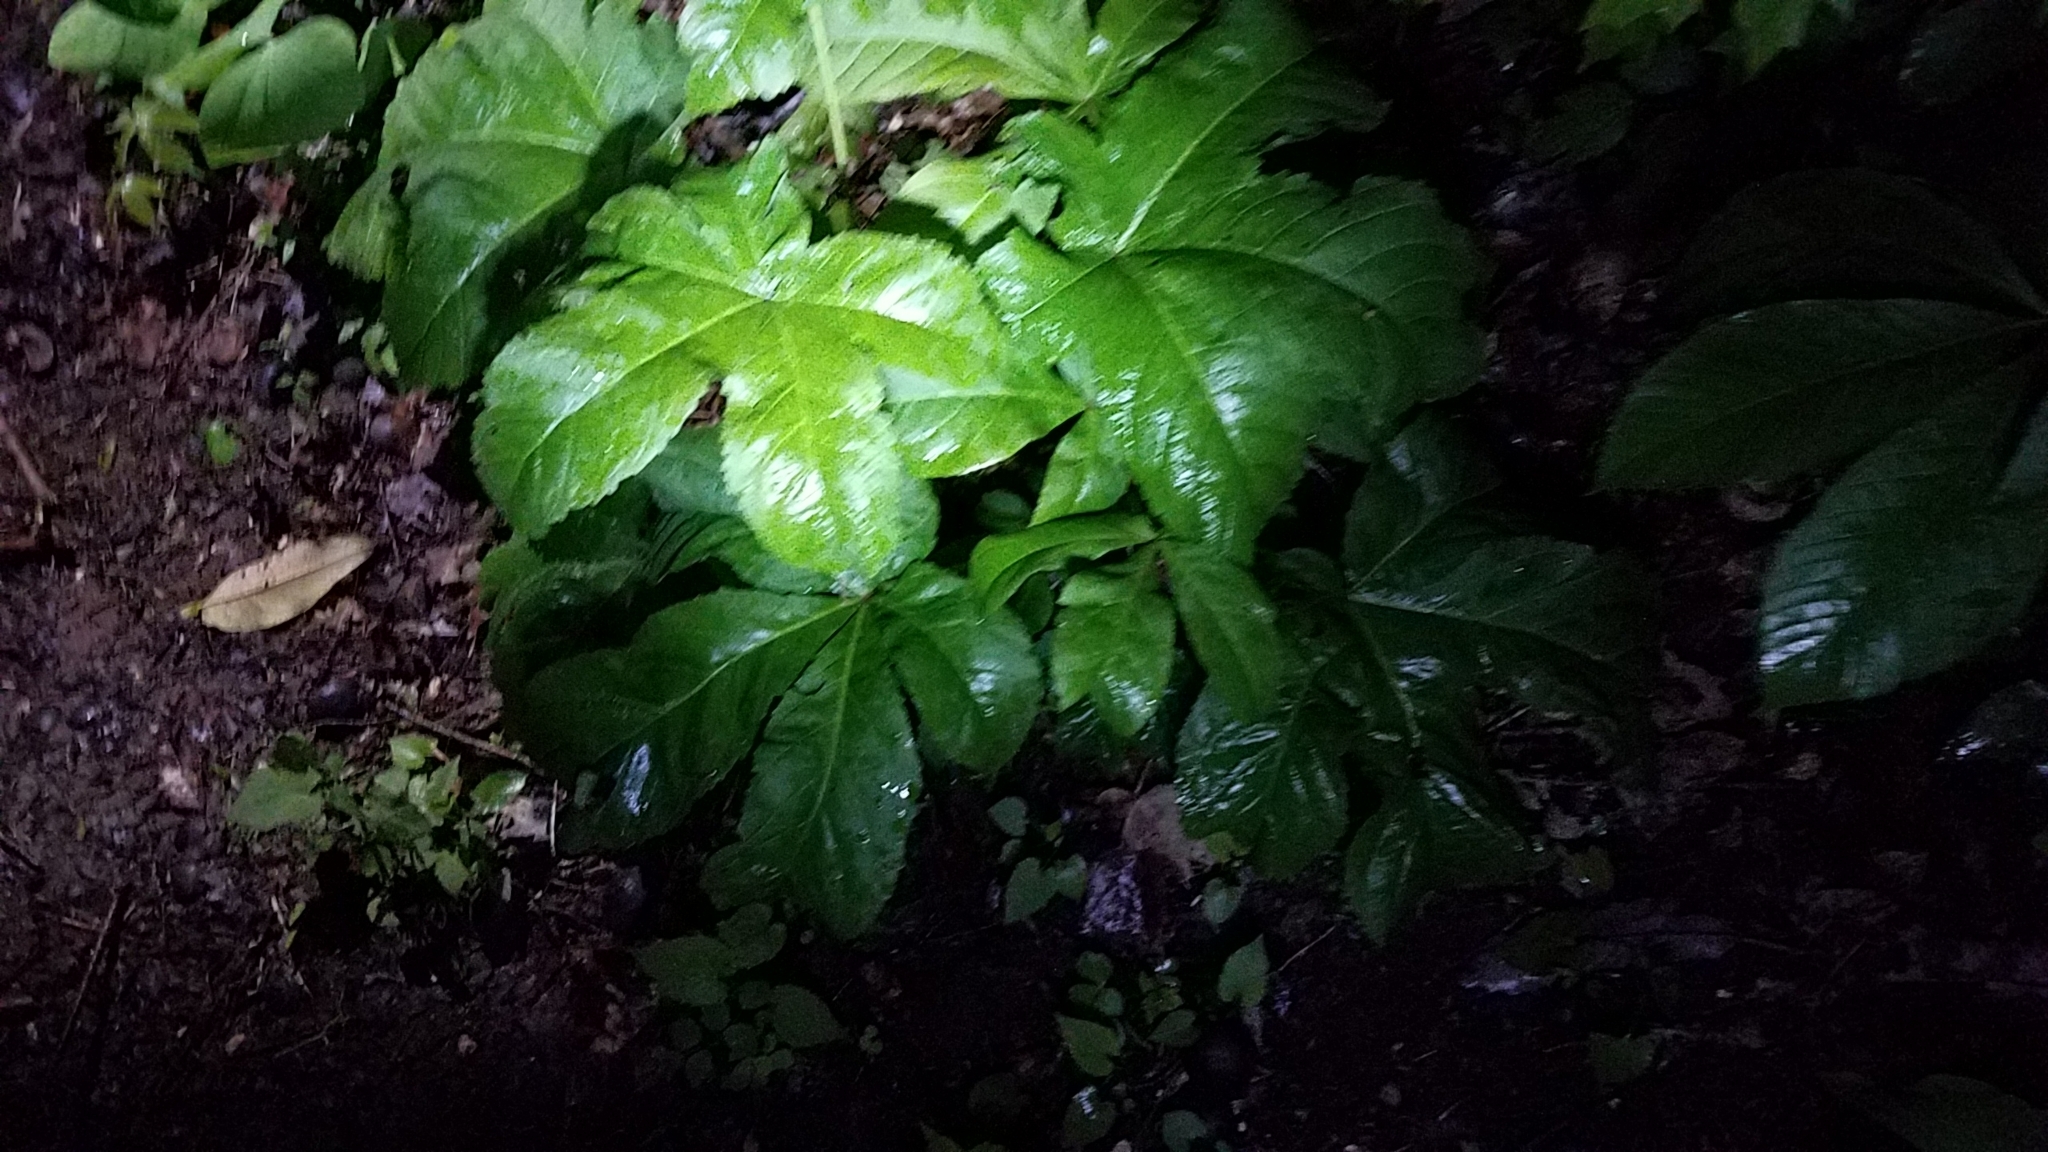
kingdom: Plantae
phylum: Tracheophyta
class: Magnoliopsida
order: Ranunculales
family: Berberidaceae
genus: Podophyllum
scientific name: Podophyllum peltatum
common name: Wild mandrake
